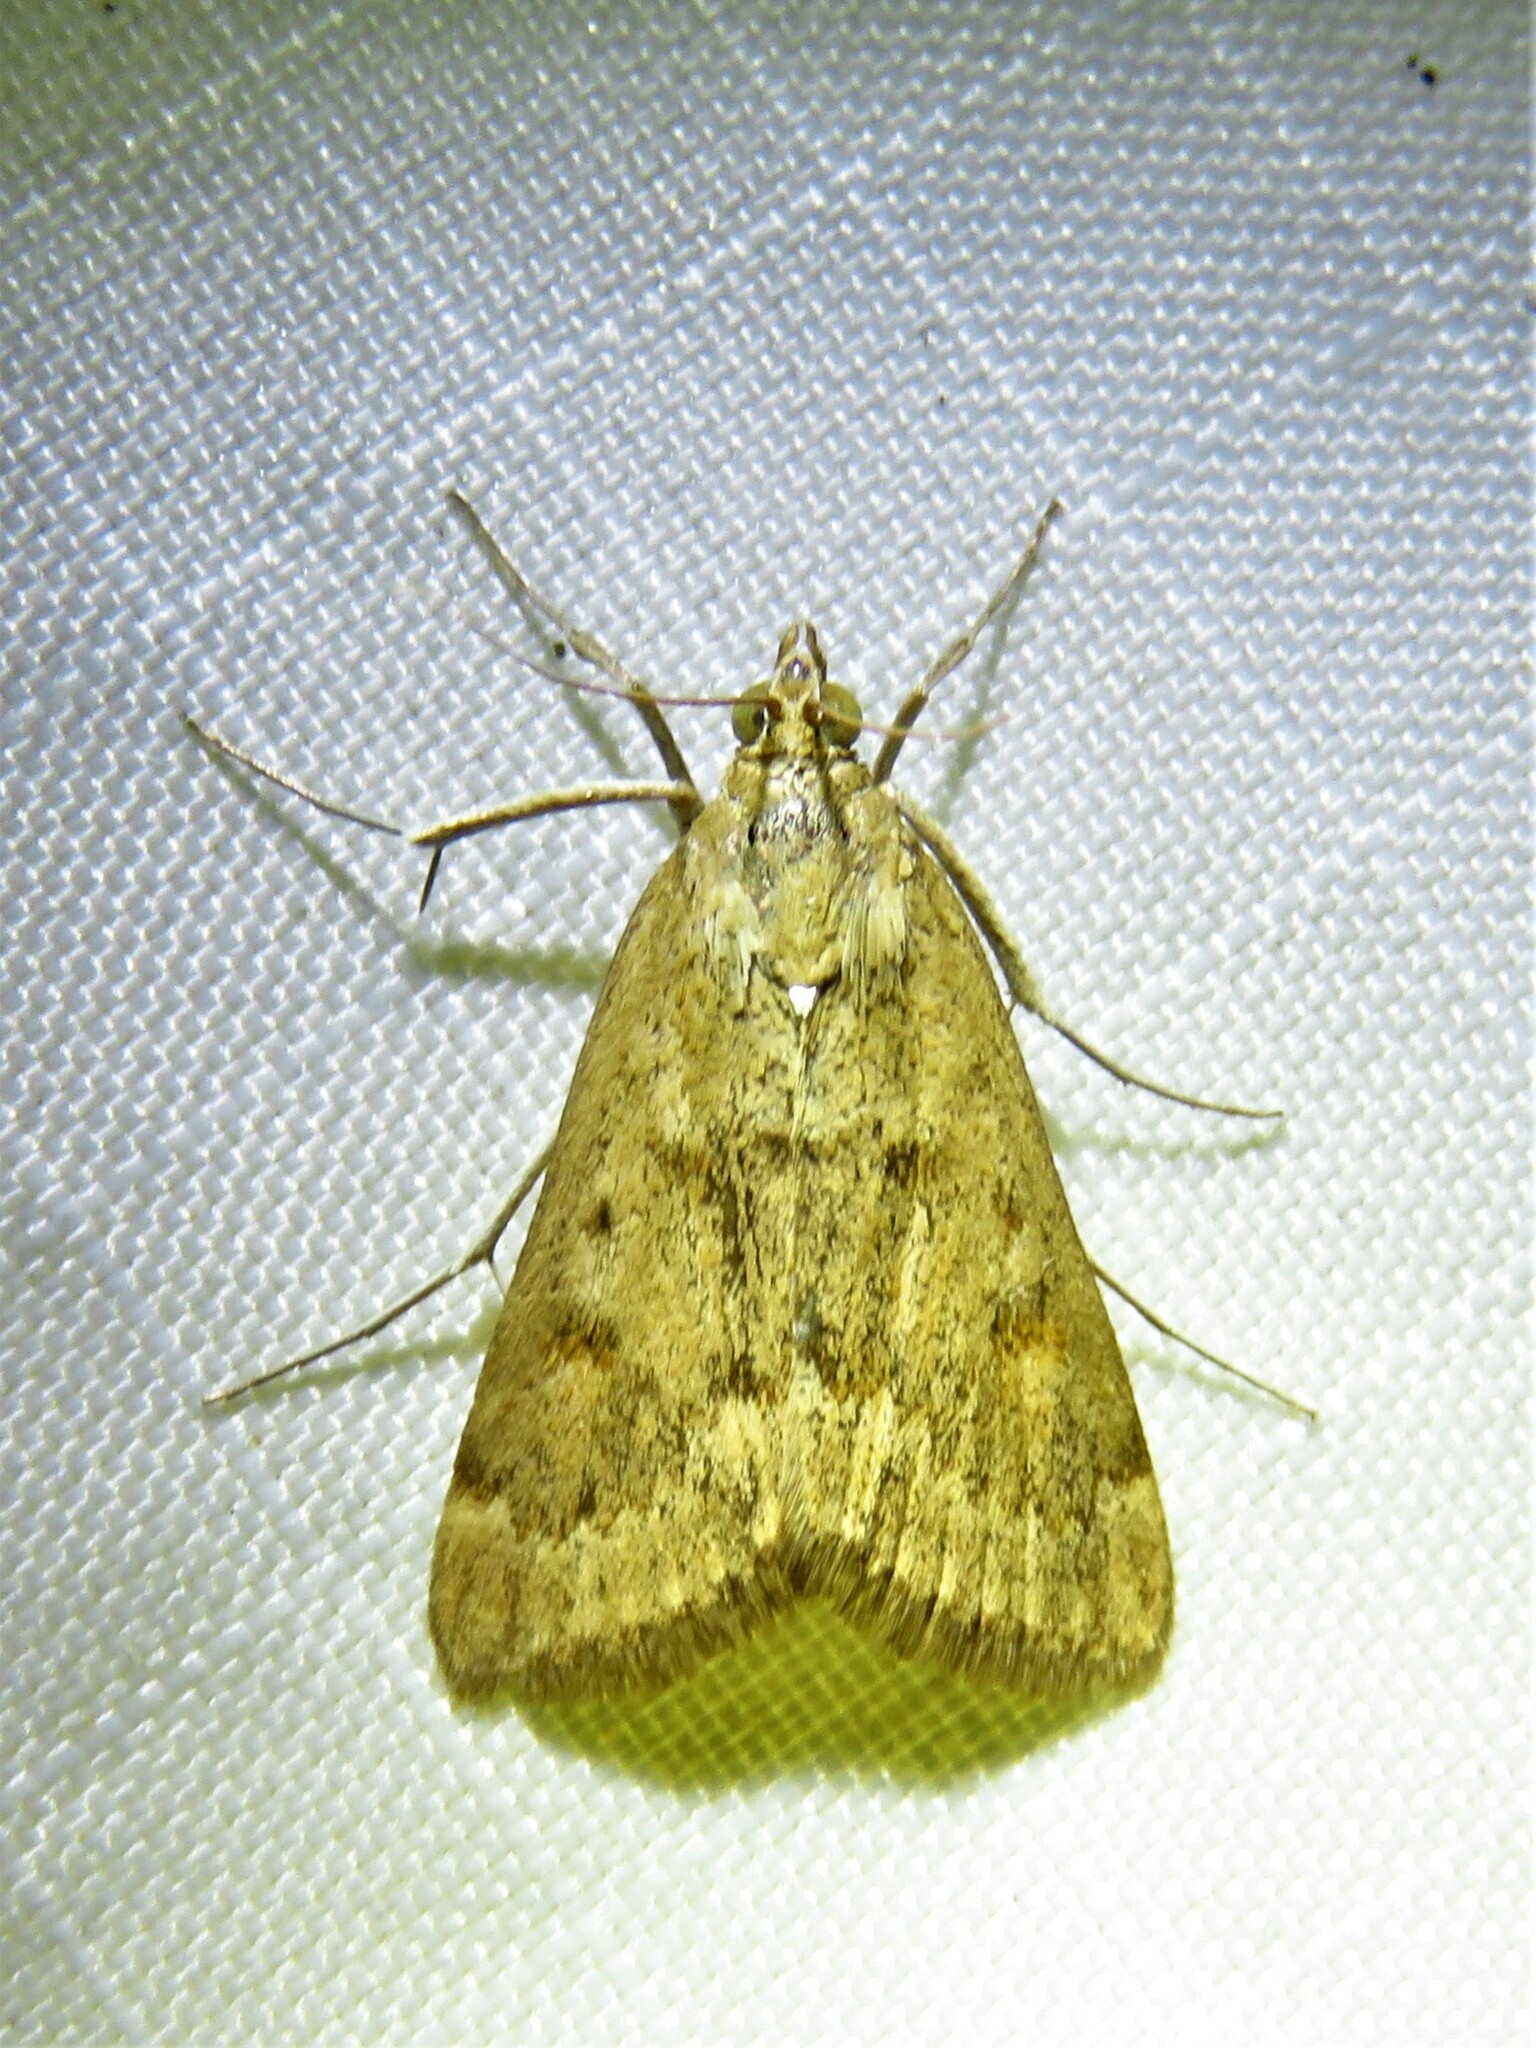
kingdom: Animalia
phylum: Arthropoda
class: Insecta
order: Lepidoptera
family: Crambidae
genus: Achyra
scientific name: Achyra rantalis
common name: Garden webworm
